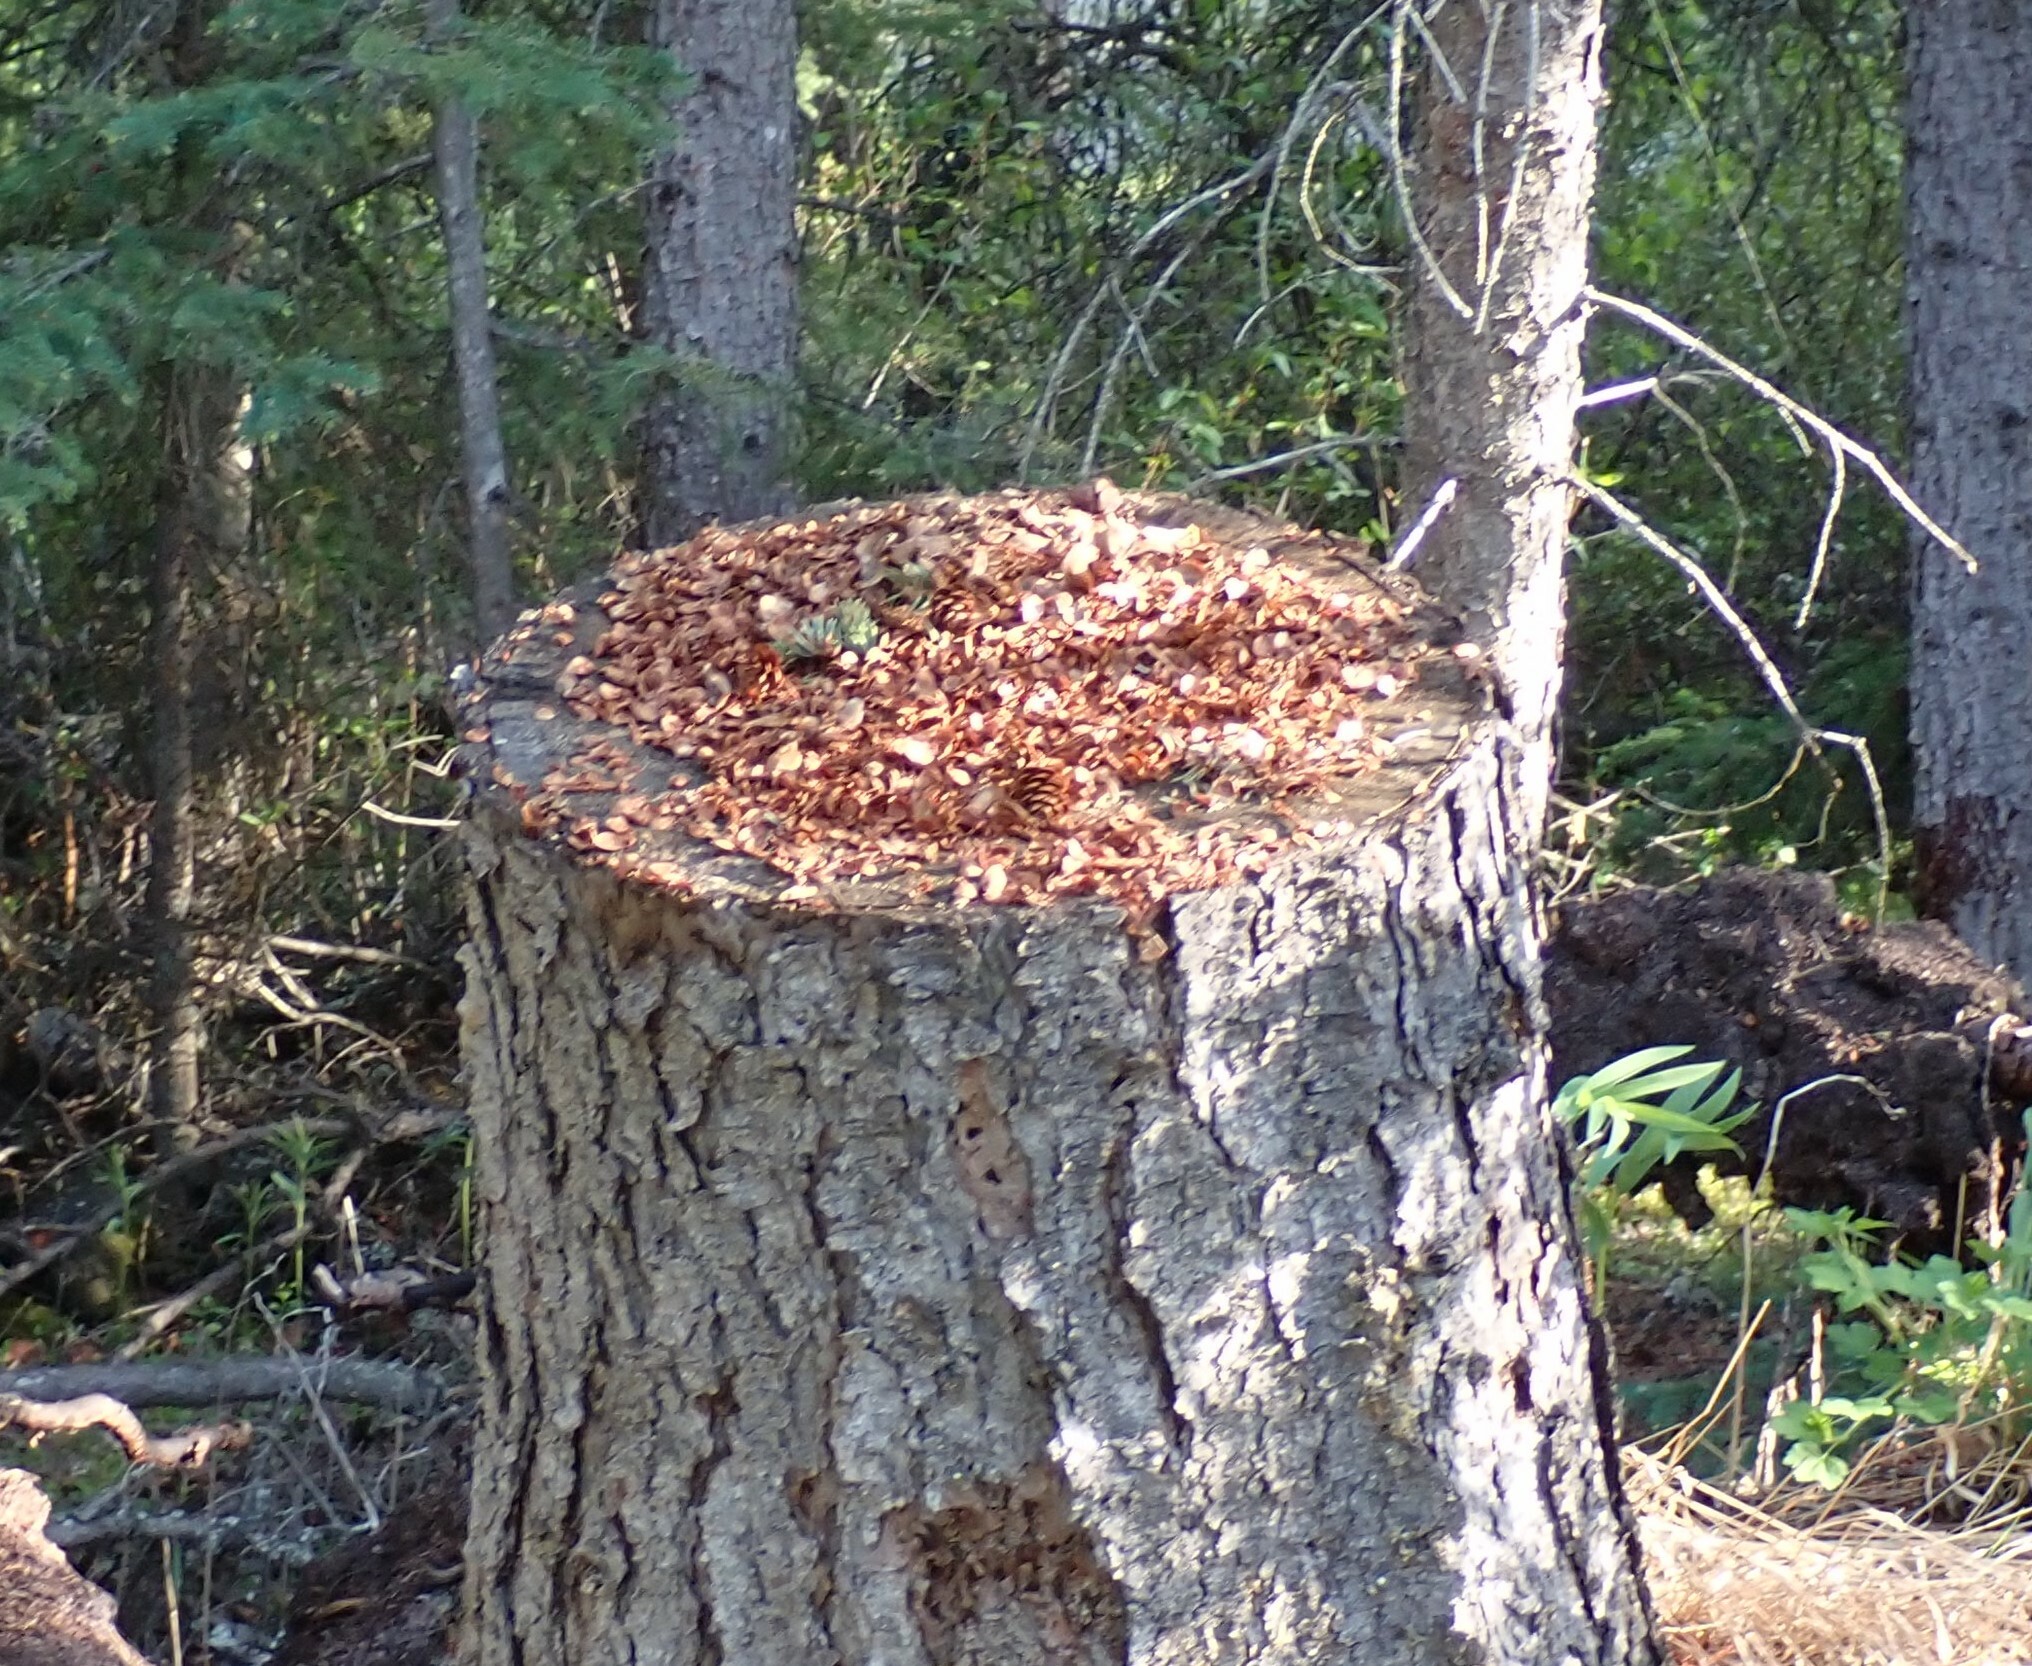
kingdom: Animalia
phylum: Chordata
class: Mammalia
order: Rodentia
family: Sciuridae
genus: Tamiasciurus
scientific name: Tamiasciurus hudsonicus
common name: Red squirrel
